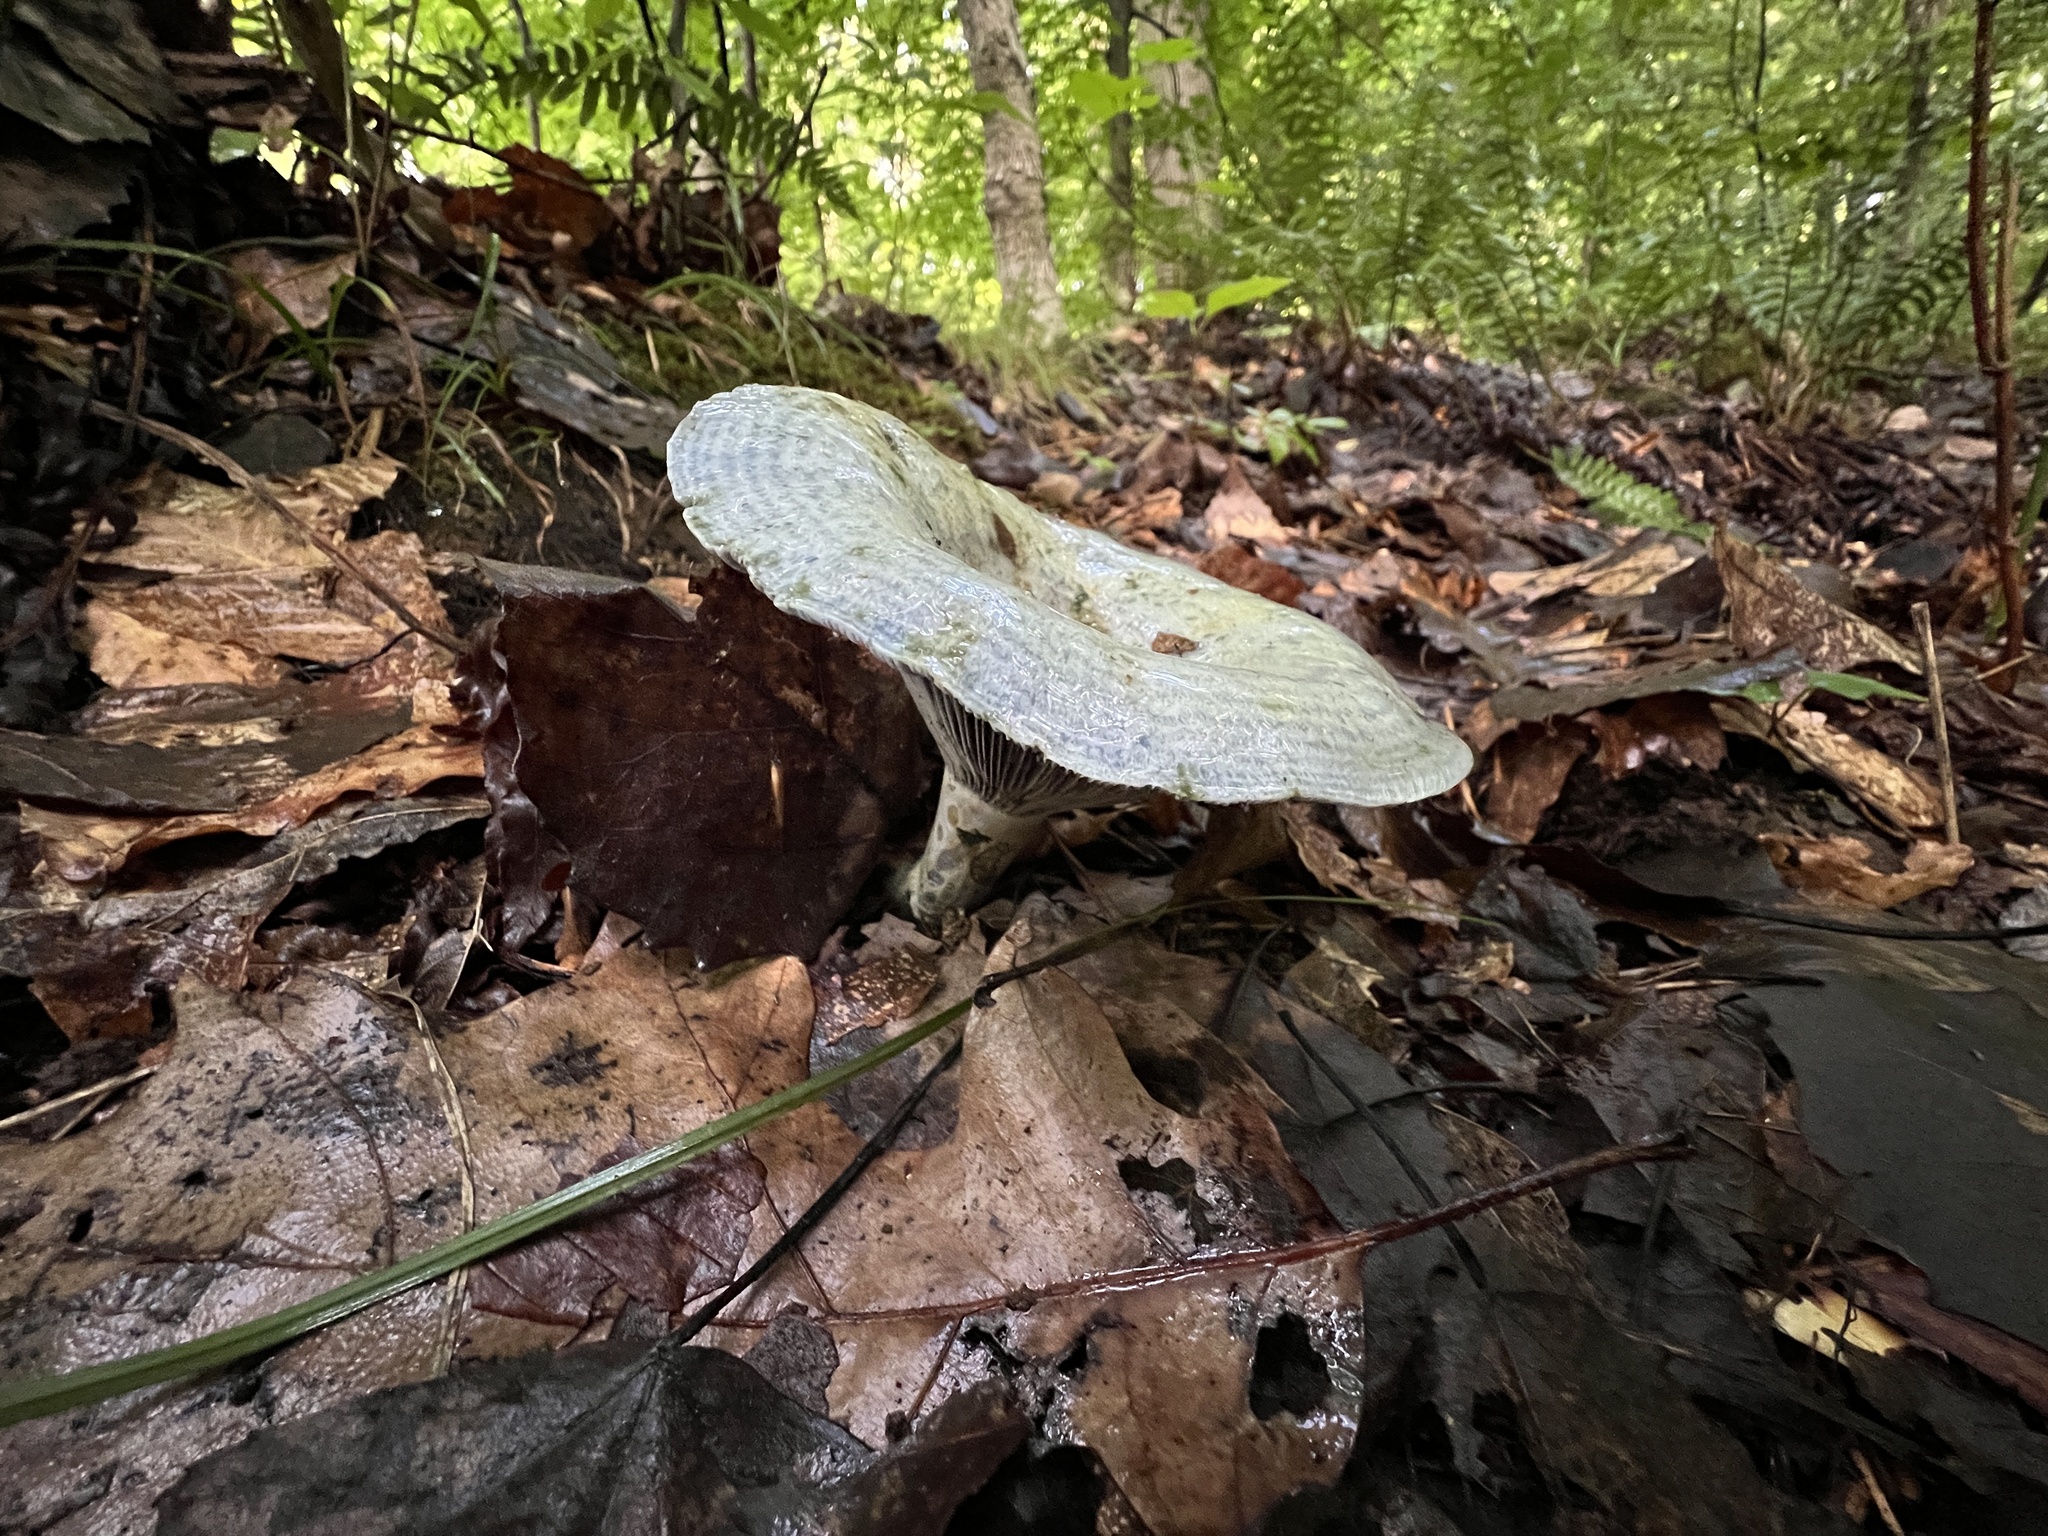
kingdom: Fungi
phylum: Basidiomycota
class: Agaricomycetes
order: Russulales
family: Russulaceae
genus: Lactarius
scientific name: Lactarius indigo
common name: Indigo milk cap
